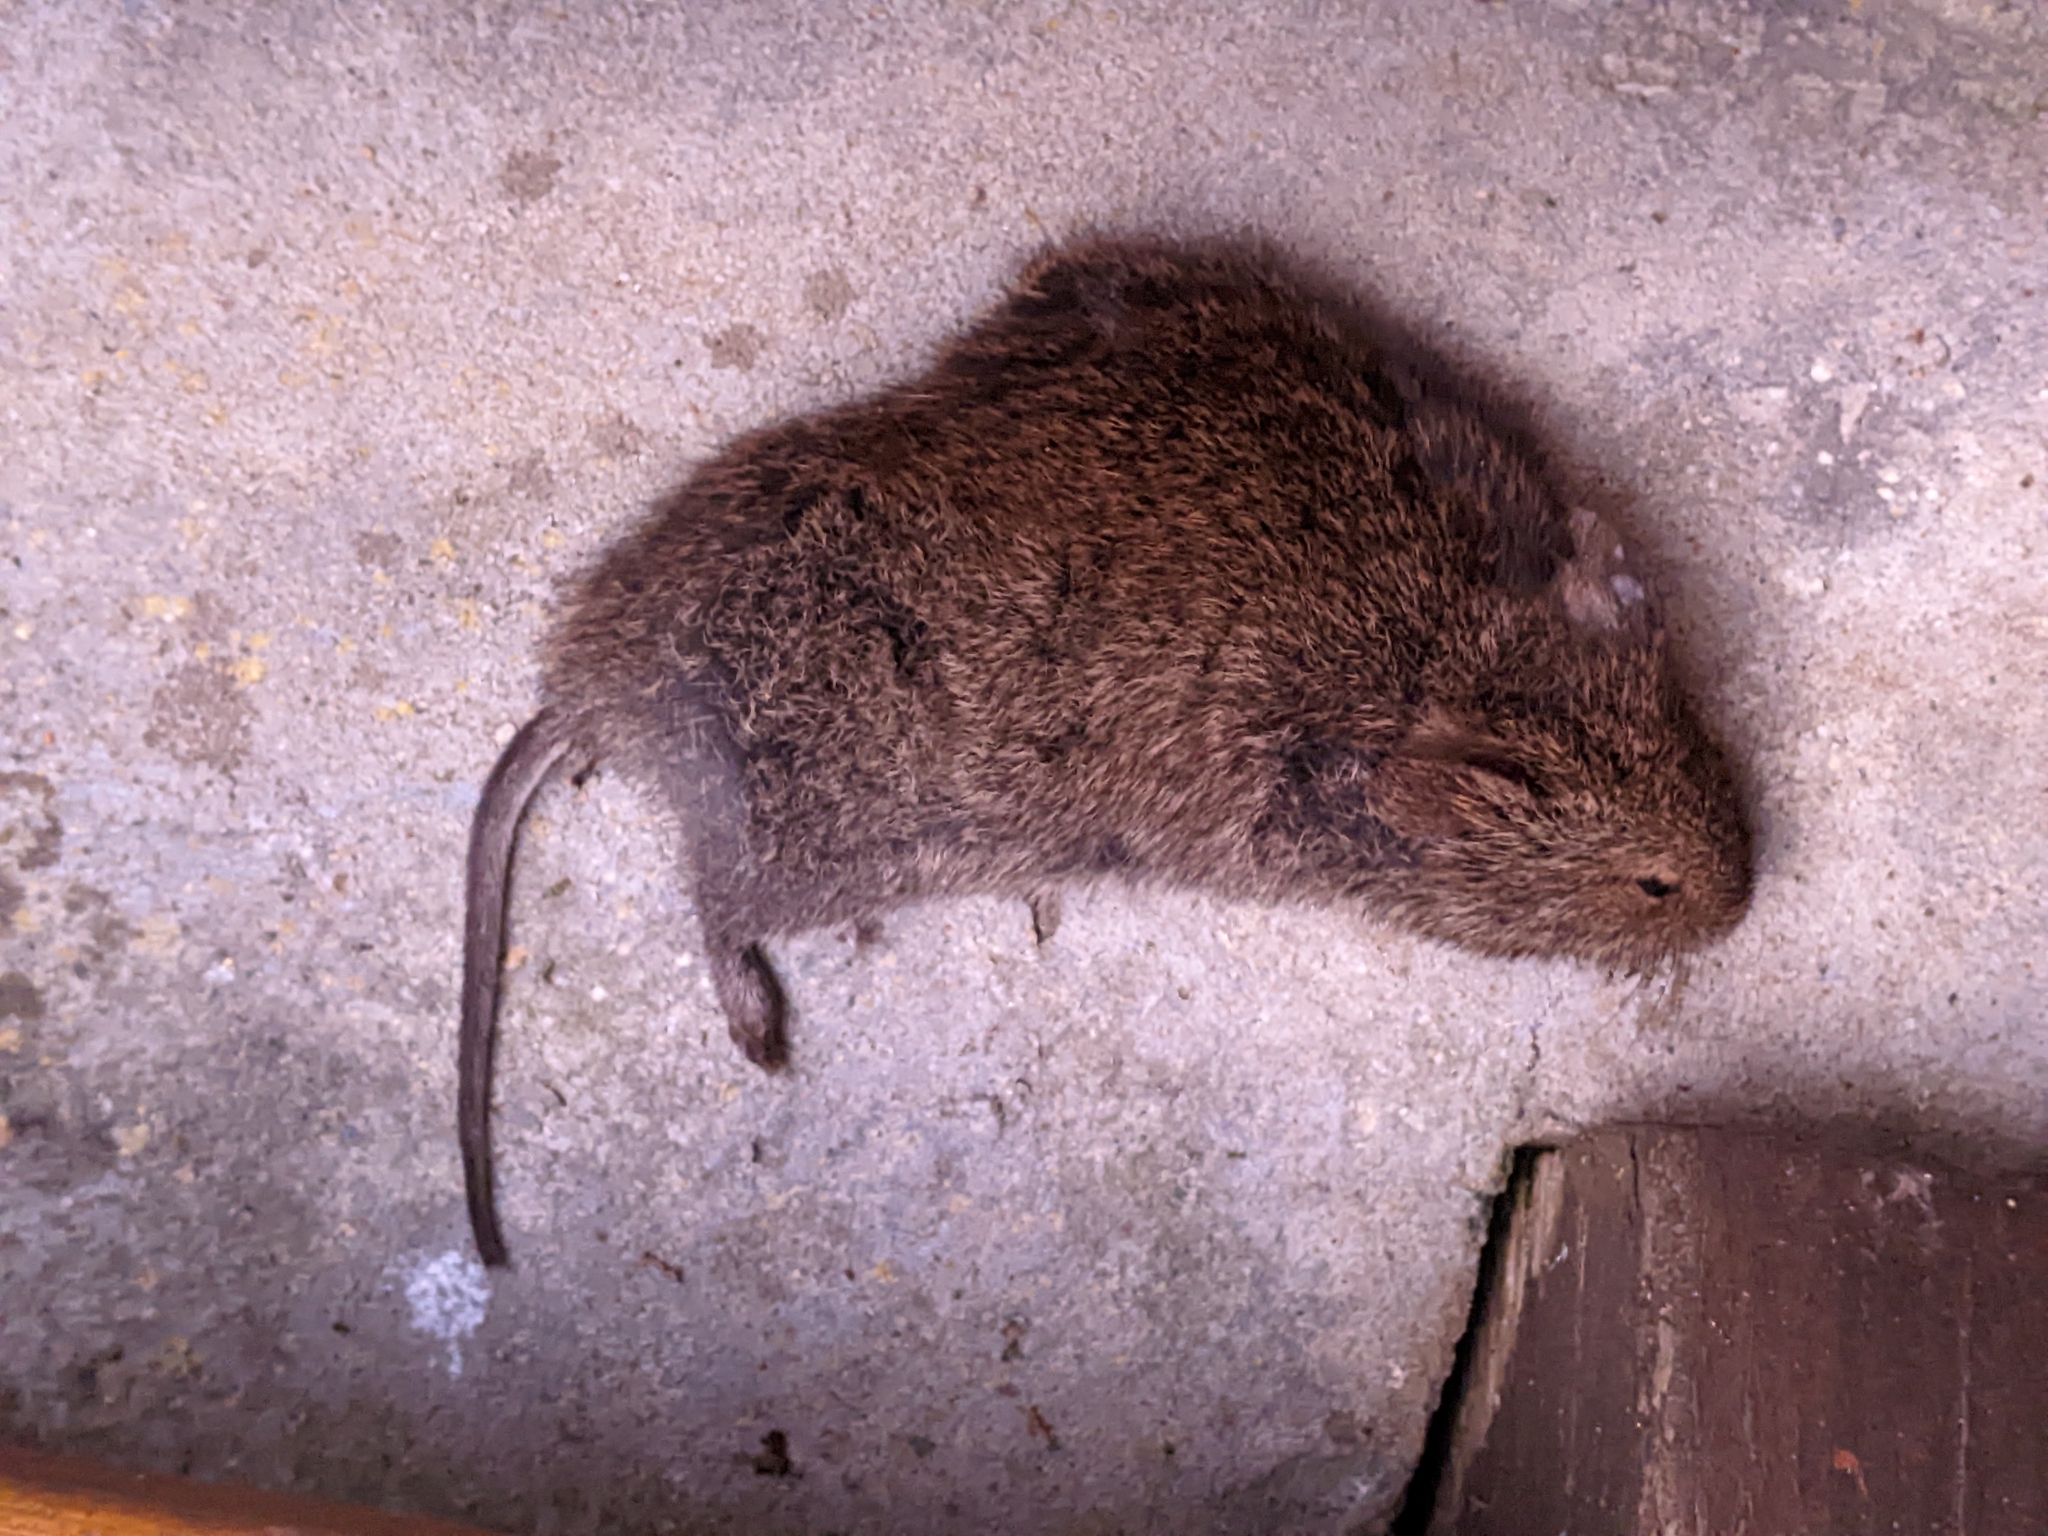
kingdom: Animalia
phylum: Chordata
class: Mammalia
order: Rodentia
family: Muridae
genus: Otomys
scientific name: Otomys irroratus
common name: Southern african vlei rat
